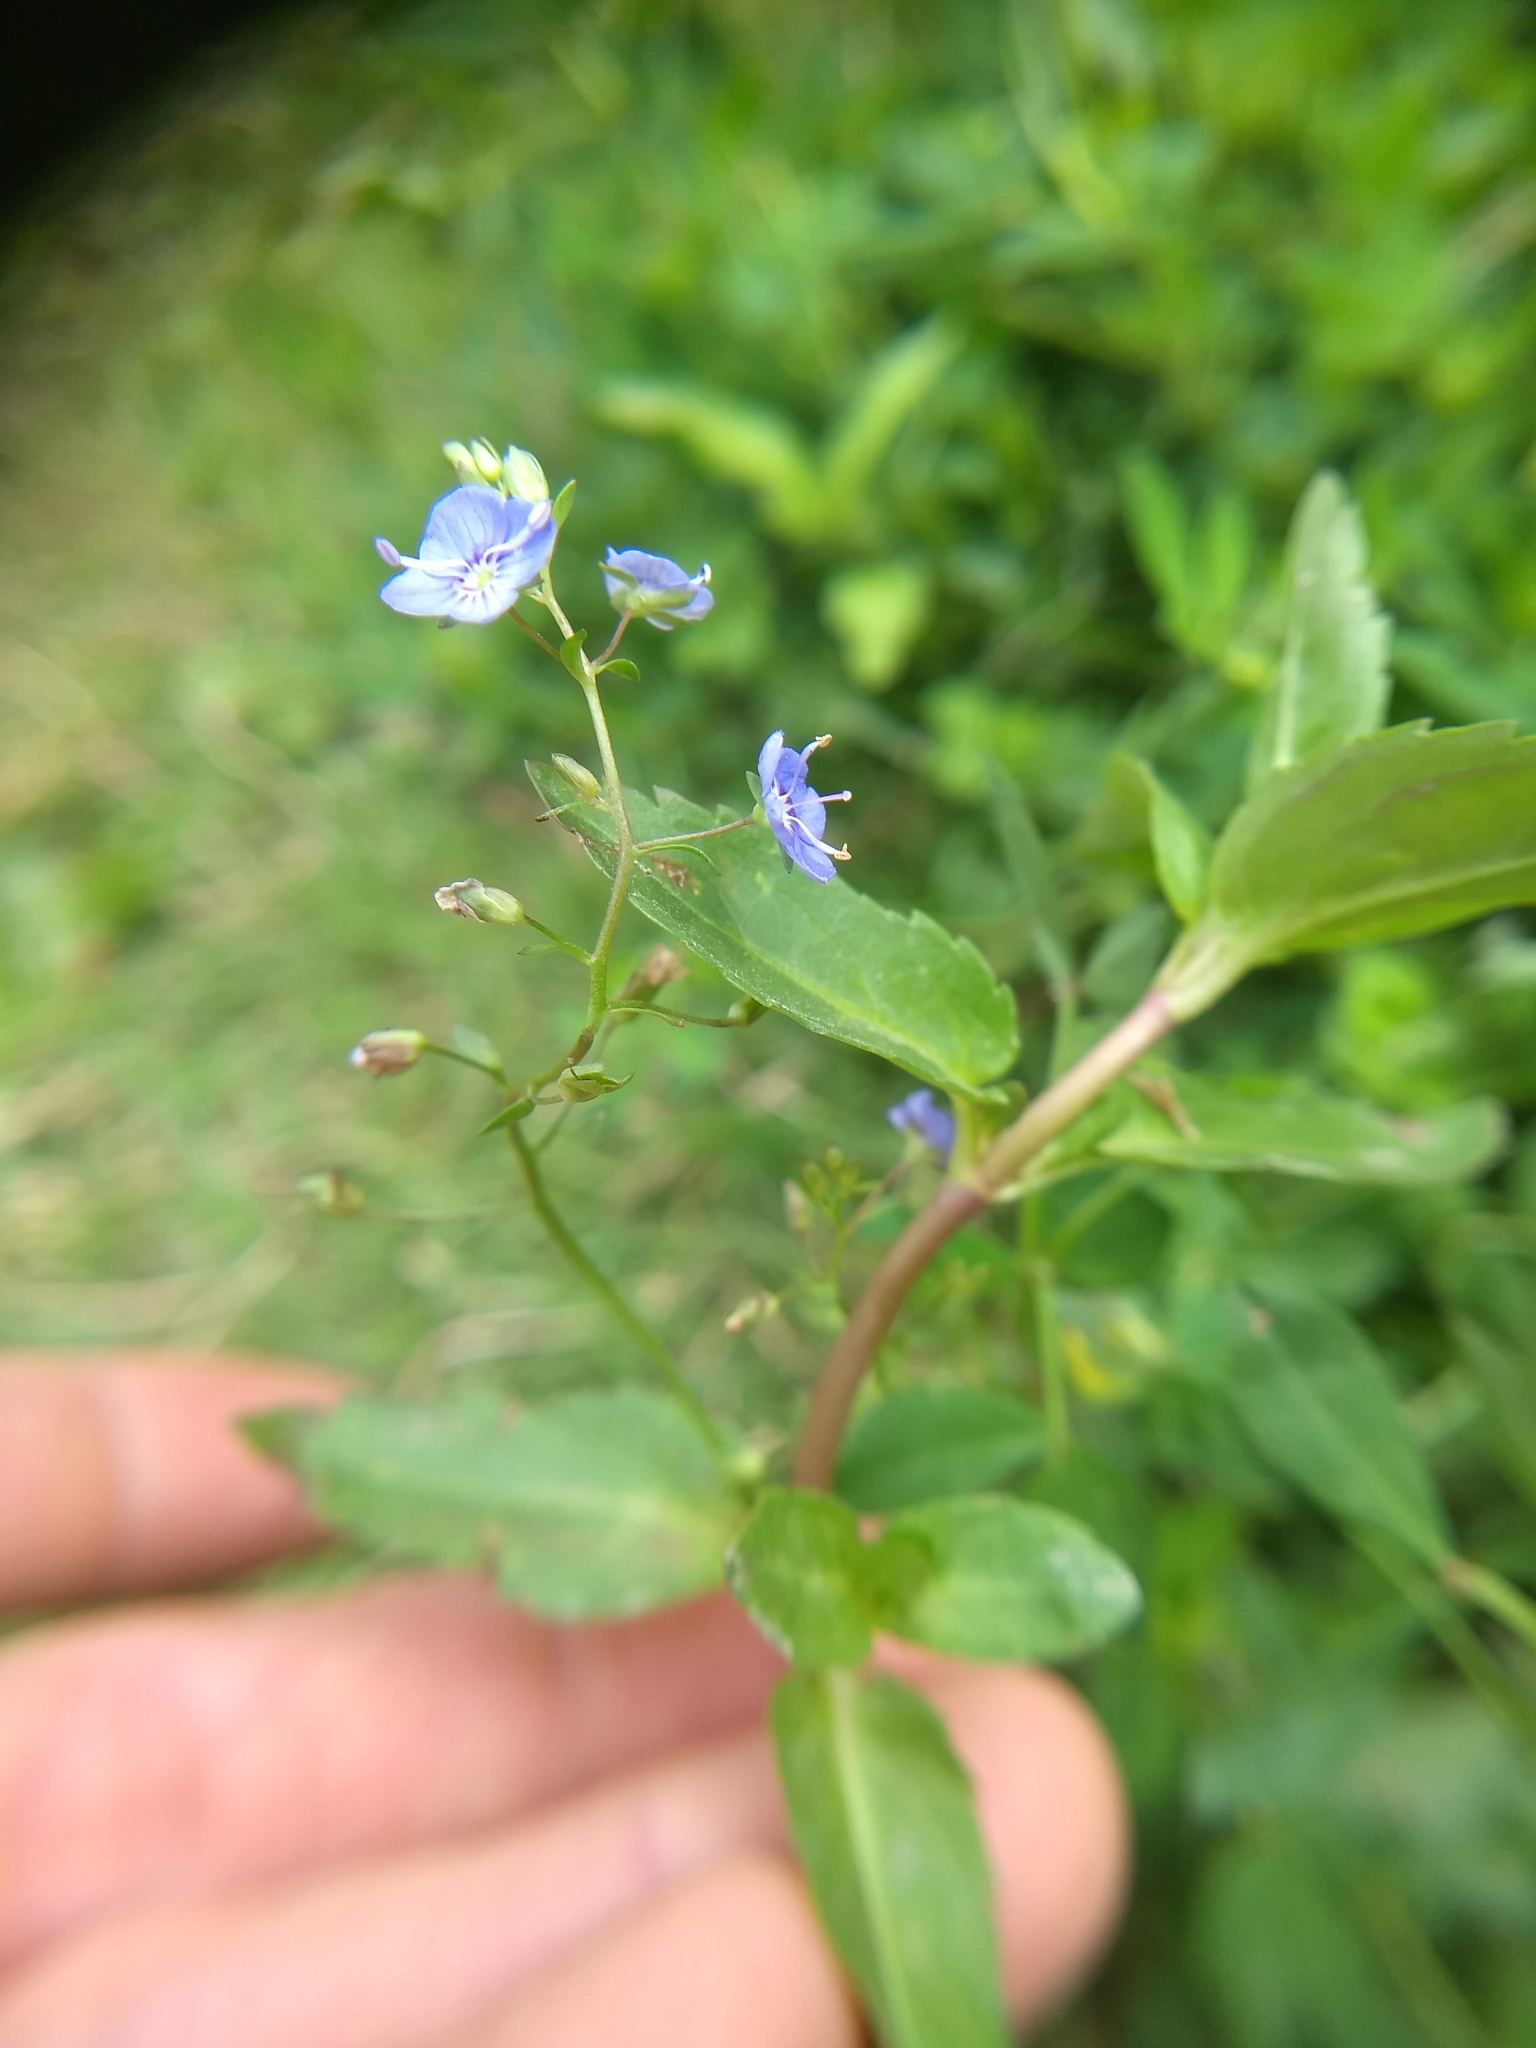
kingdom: Plantae
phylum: Tracheophyta
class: Magnoliopsida
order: Lamiales
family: Plantaginaceae
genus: Veronica
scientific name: Veronica americana
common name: American brooklime
